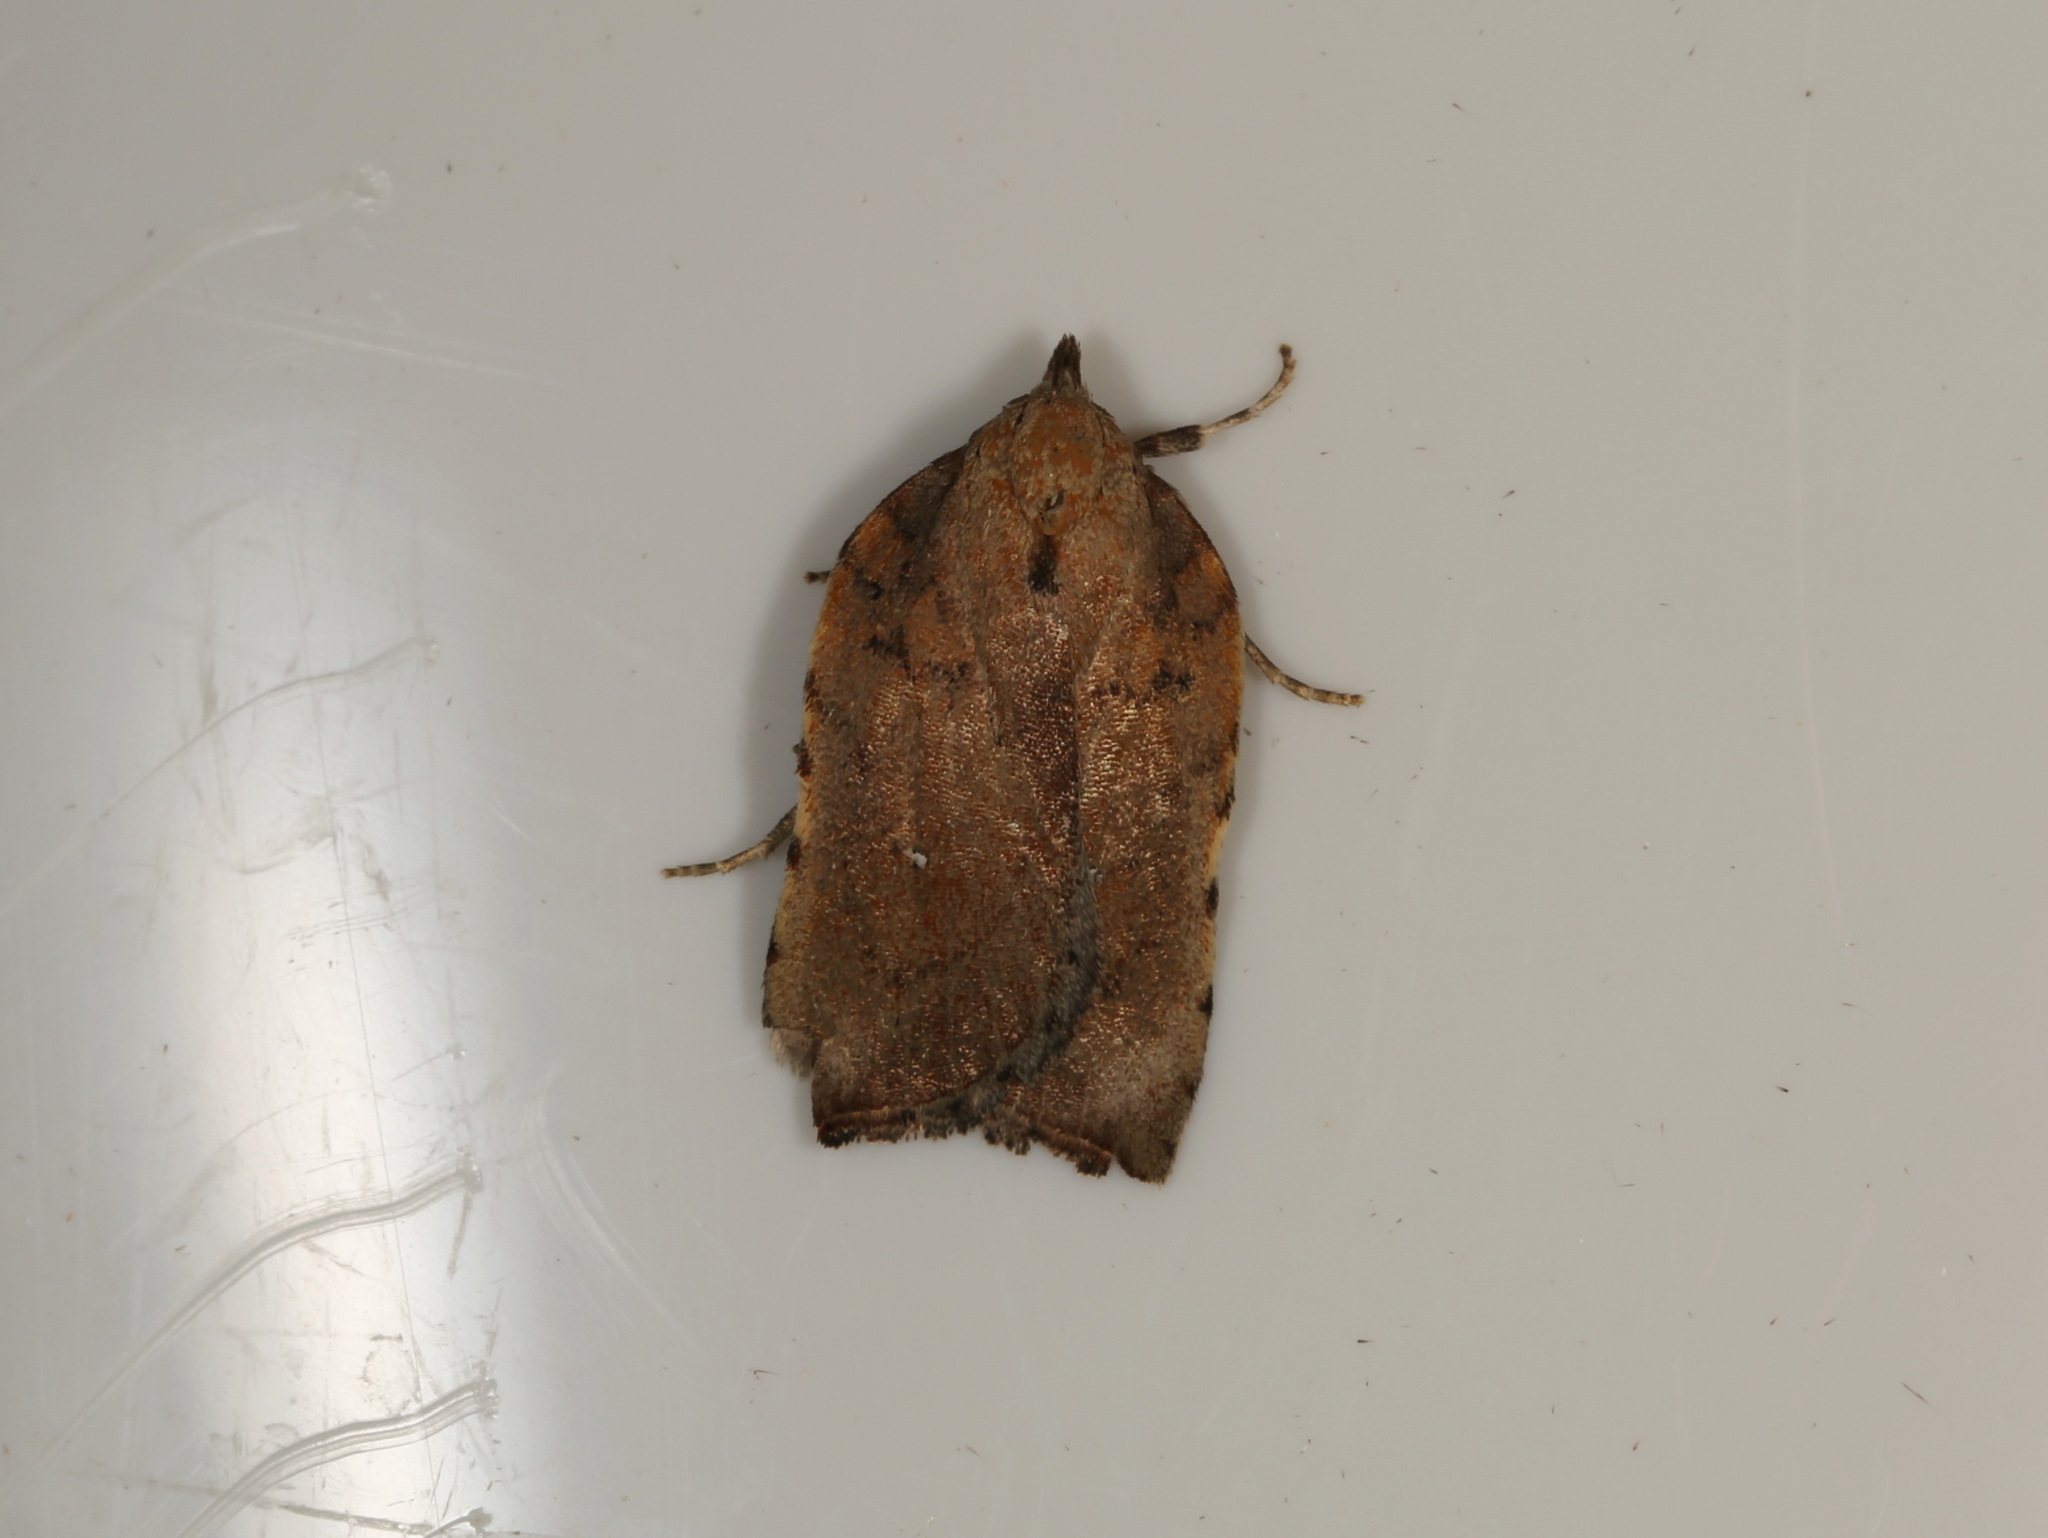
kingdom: Animalia
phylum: Arthropoda
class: Insecta
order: Lepidoptera
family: Oecophoridae
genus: Arachnographa
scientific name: Arachnographa micrastrella
